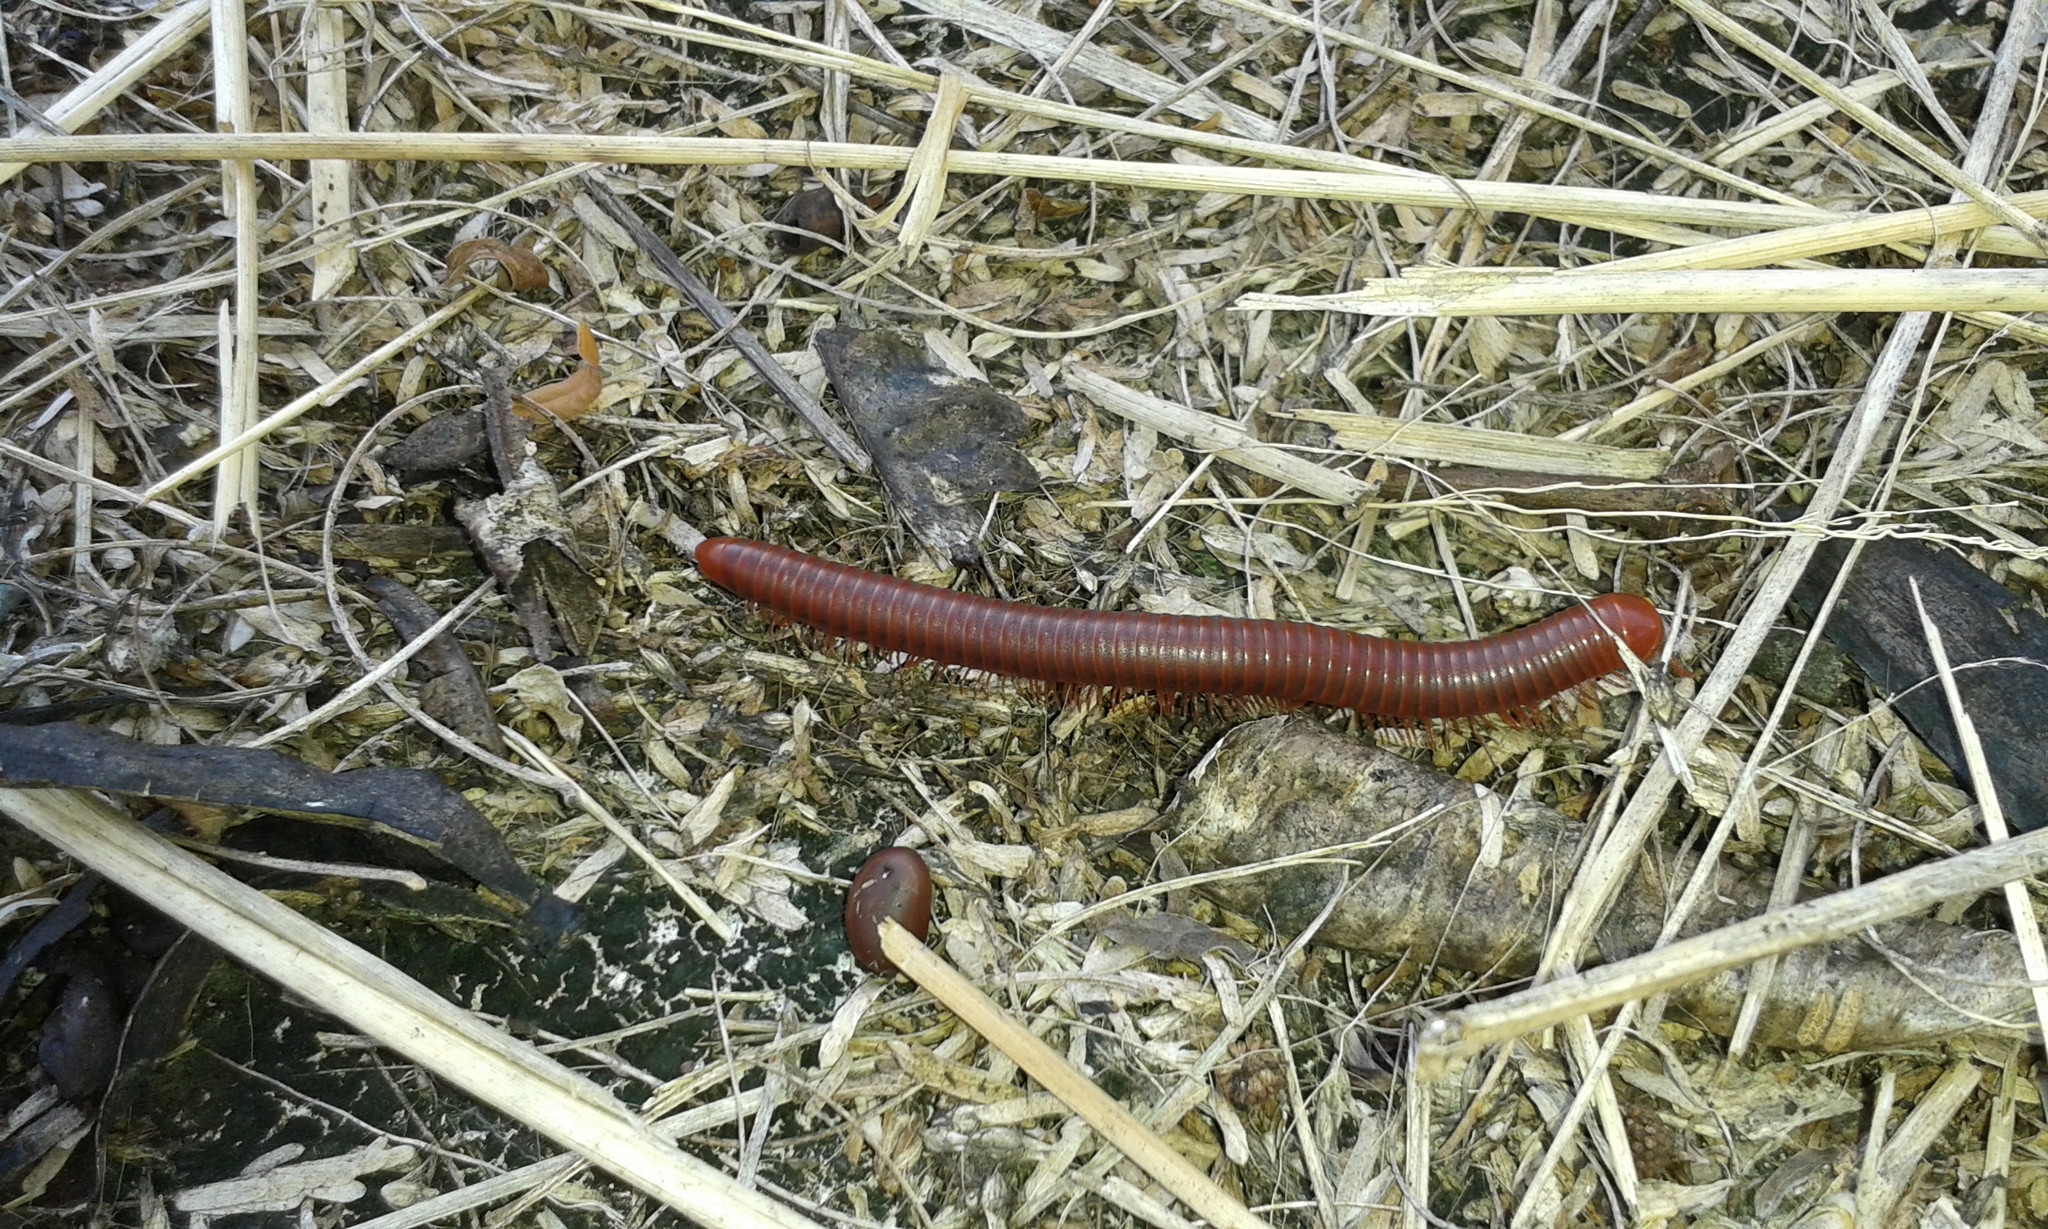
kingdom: Animalia
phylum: Arthropoda
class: Diplopoda
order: Spirobolida
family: Pachybolidae
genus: Trigoniulus
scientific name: Trigoniulus corallinus
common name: Millipede
